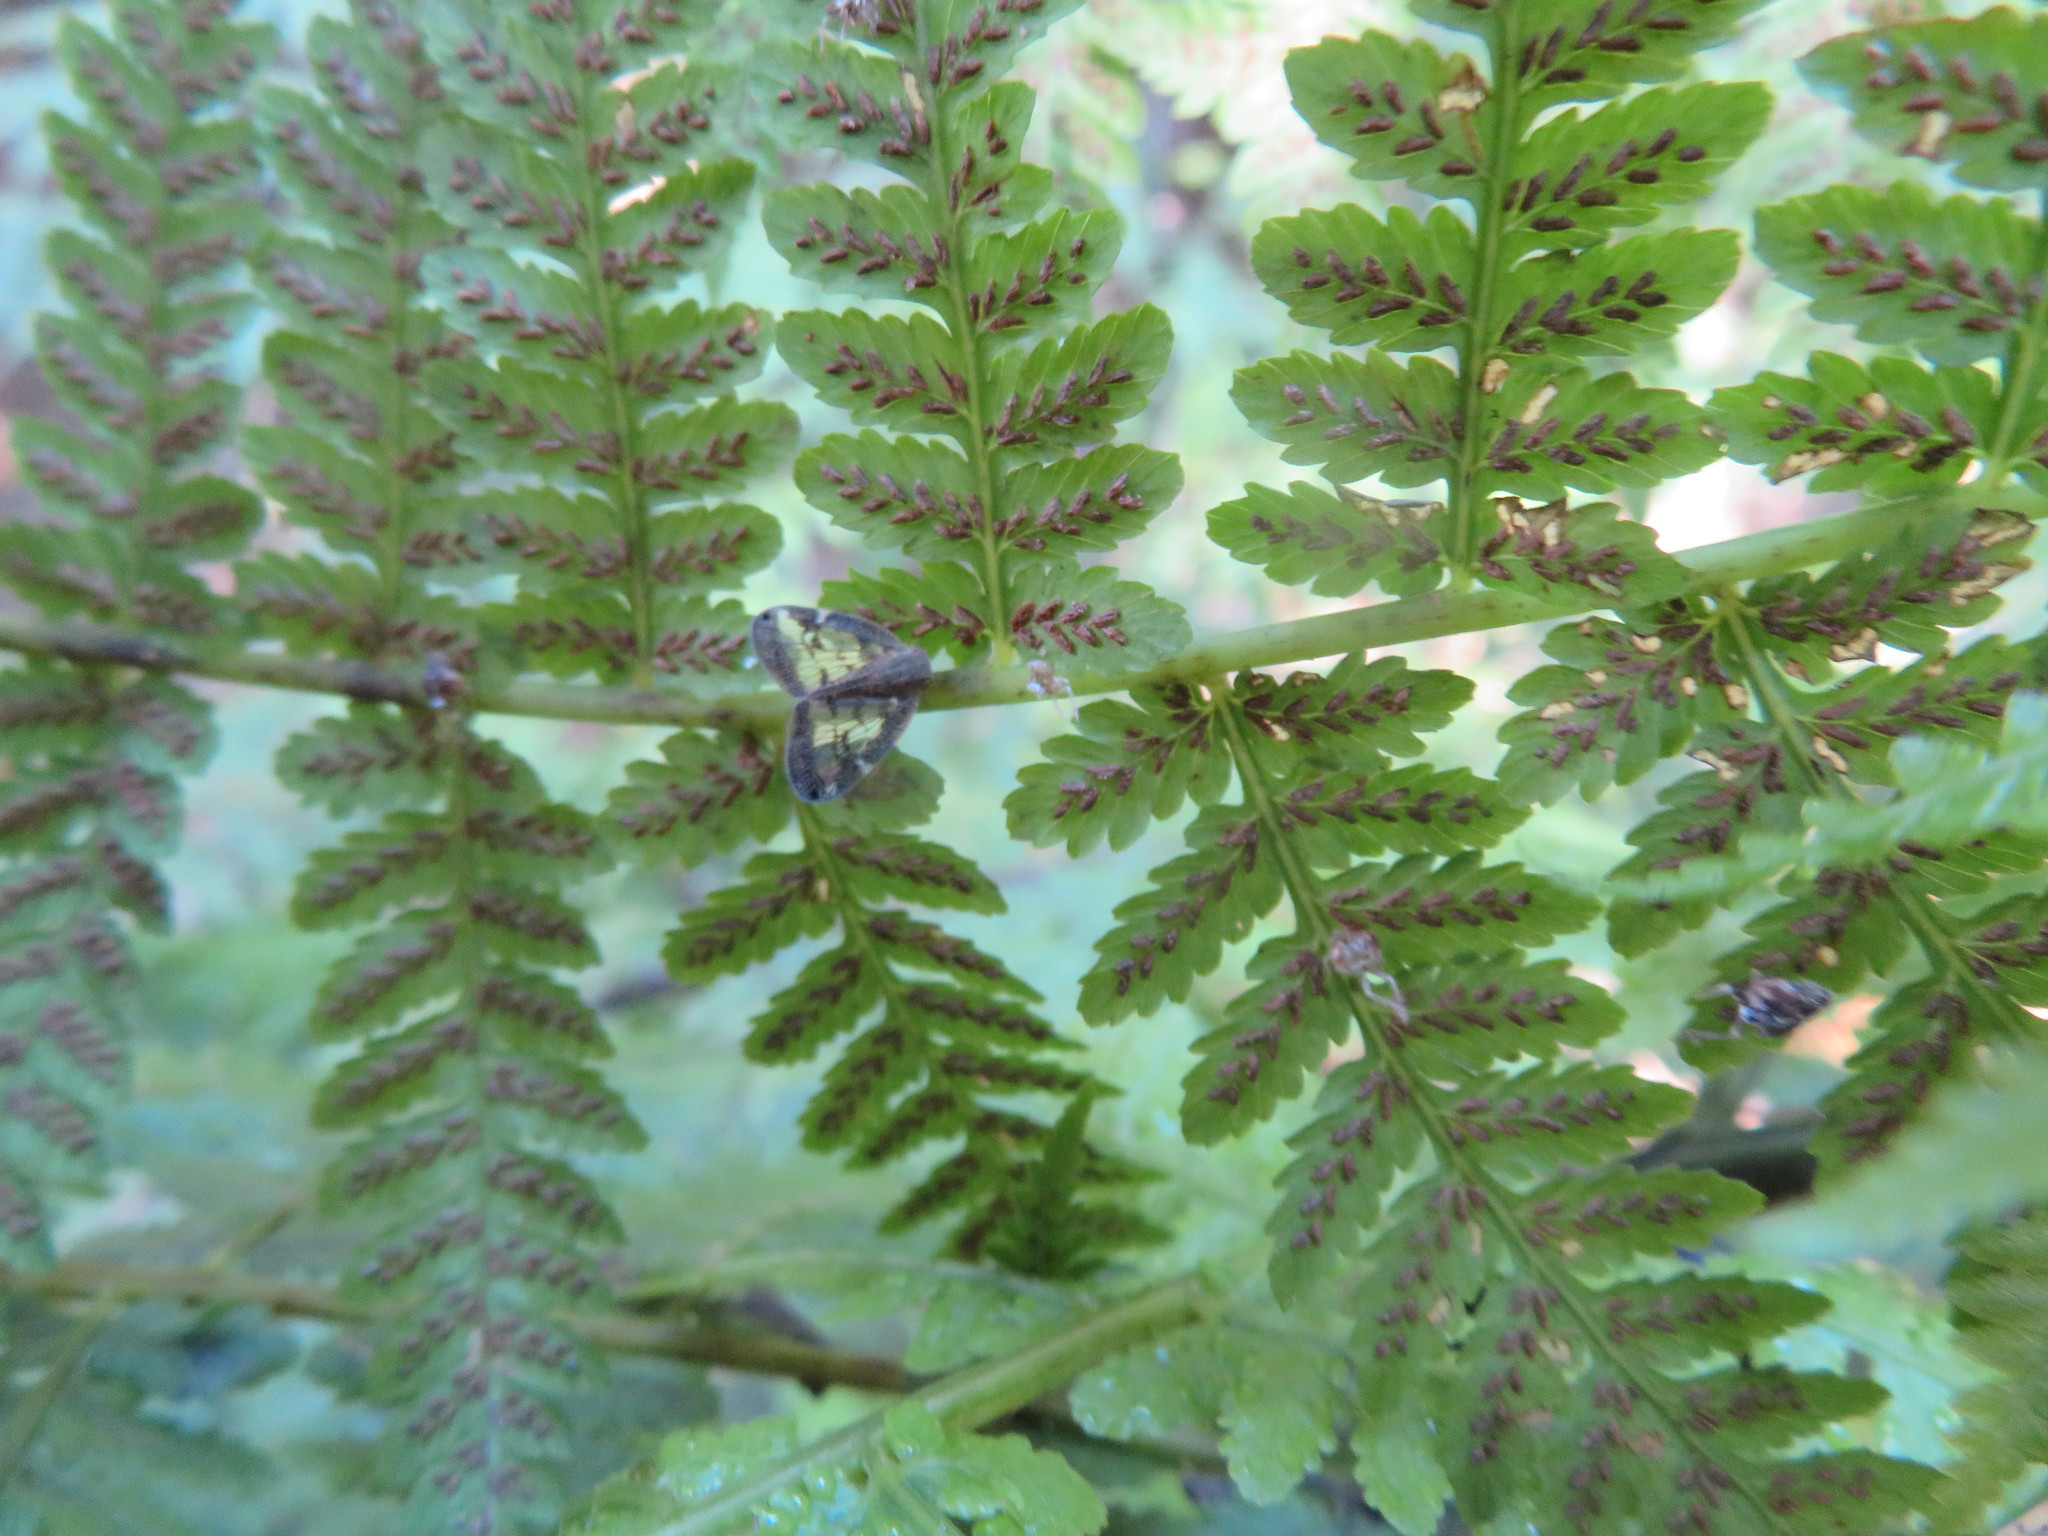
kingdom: Animalia
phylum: Arthropoda
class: Insecta
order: Hemiptera
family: Ricaniidae
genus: Scolypopa
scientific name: Scolypopa australis
